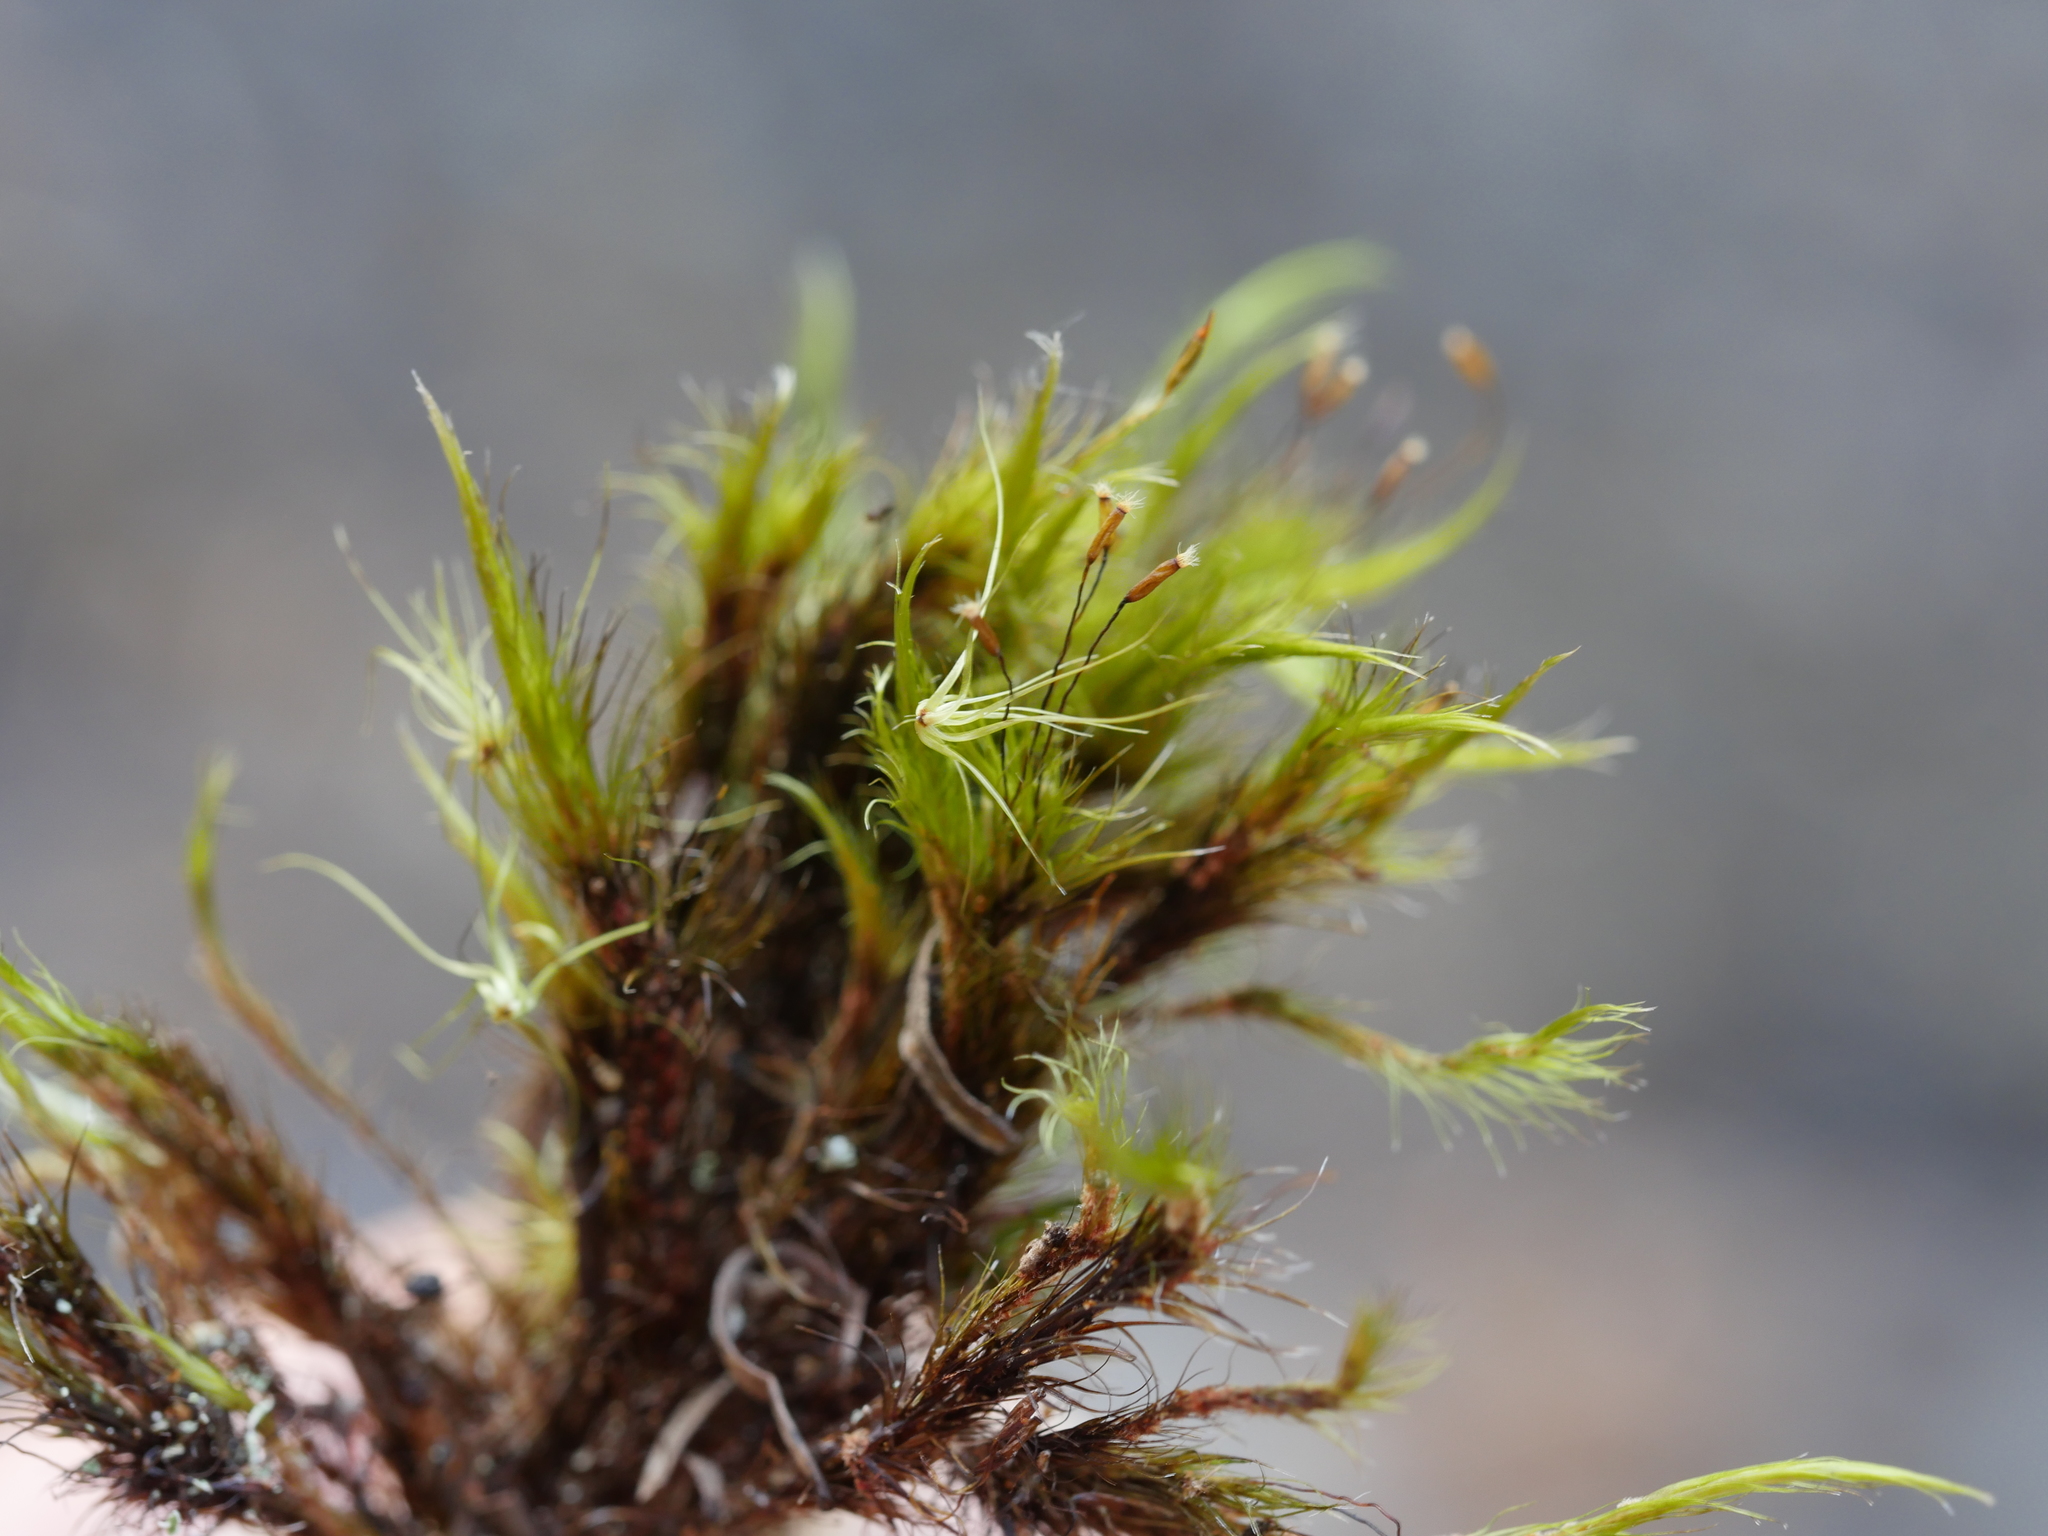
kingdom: Plantae
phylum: Bryophyta
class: Bryopsida
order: Dicranales
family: Leucobryaceae
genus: Campylopus
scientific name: Campylopus clavatus
